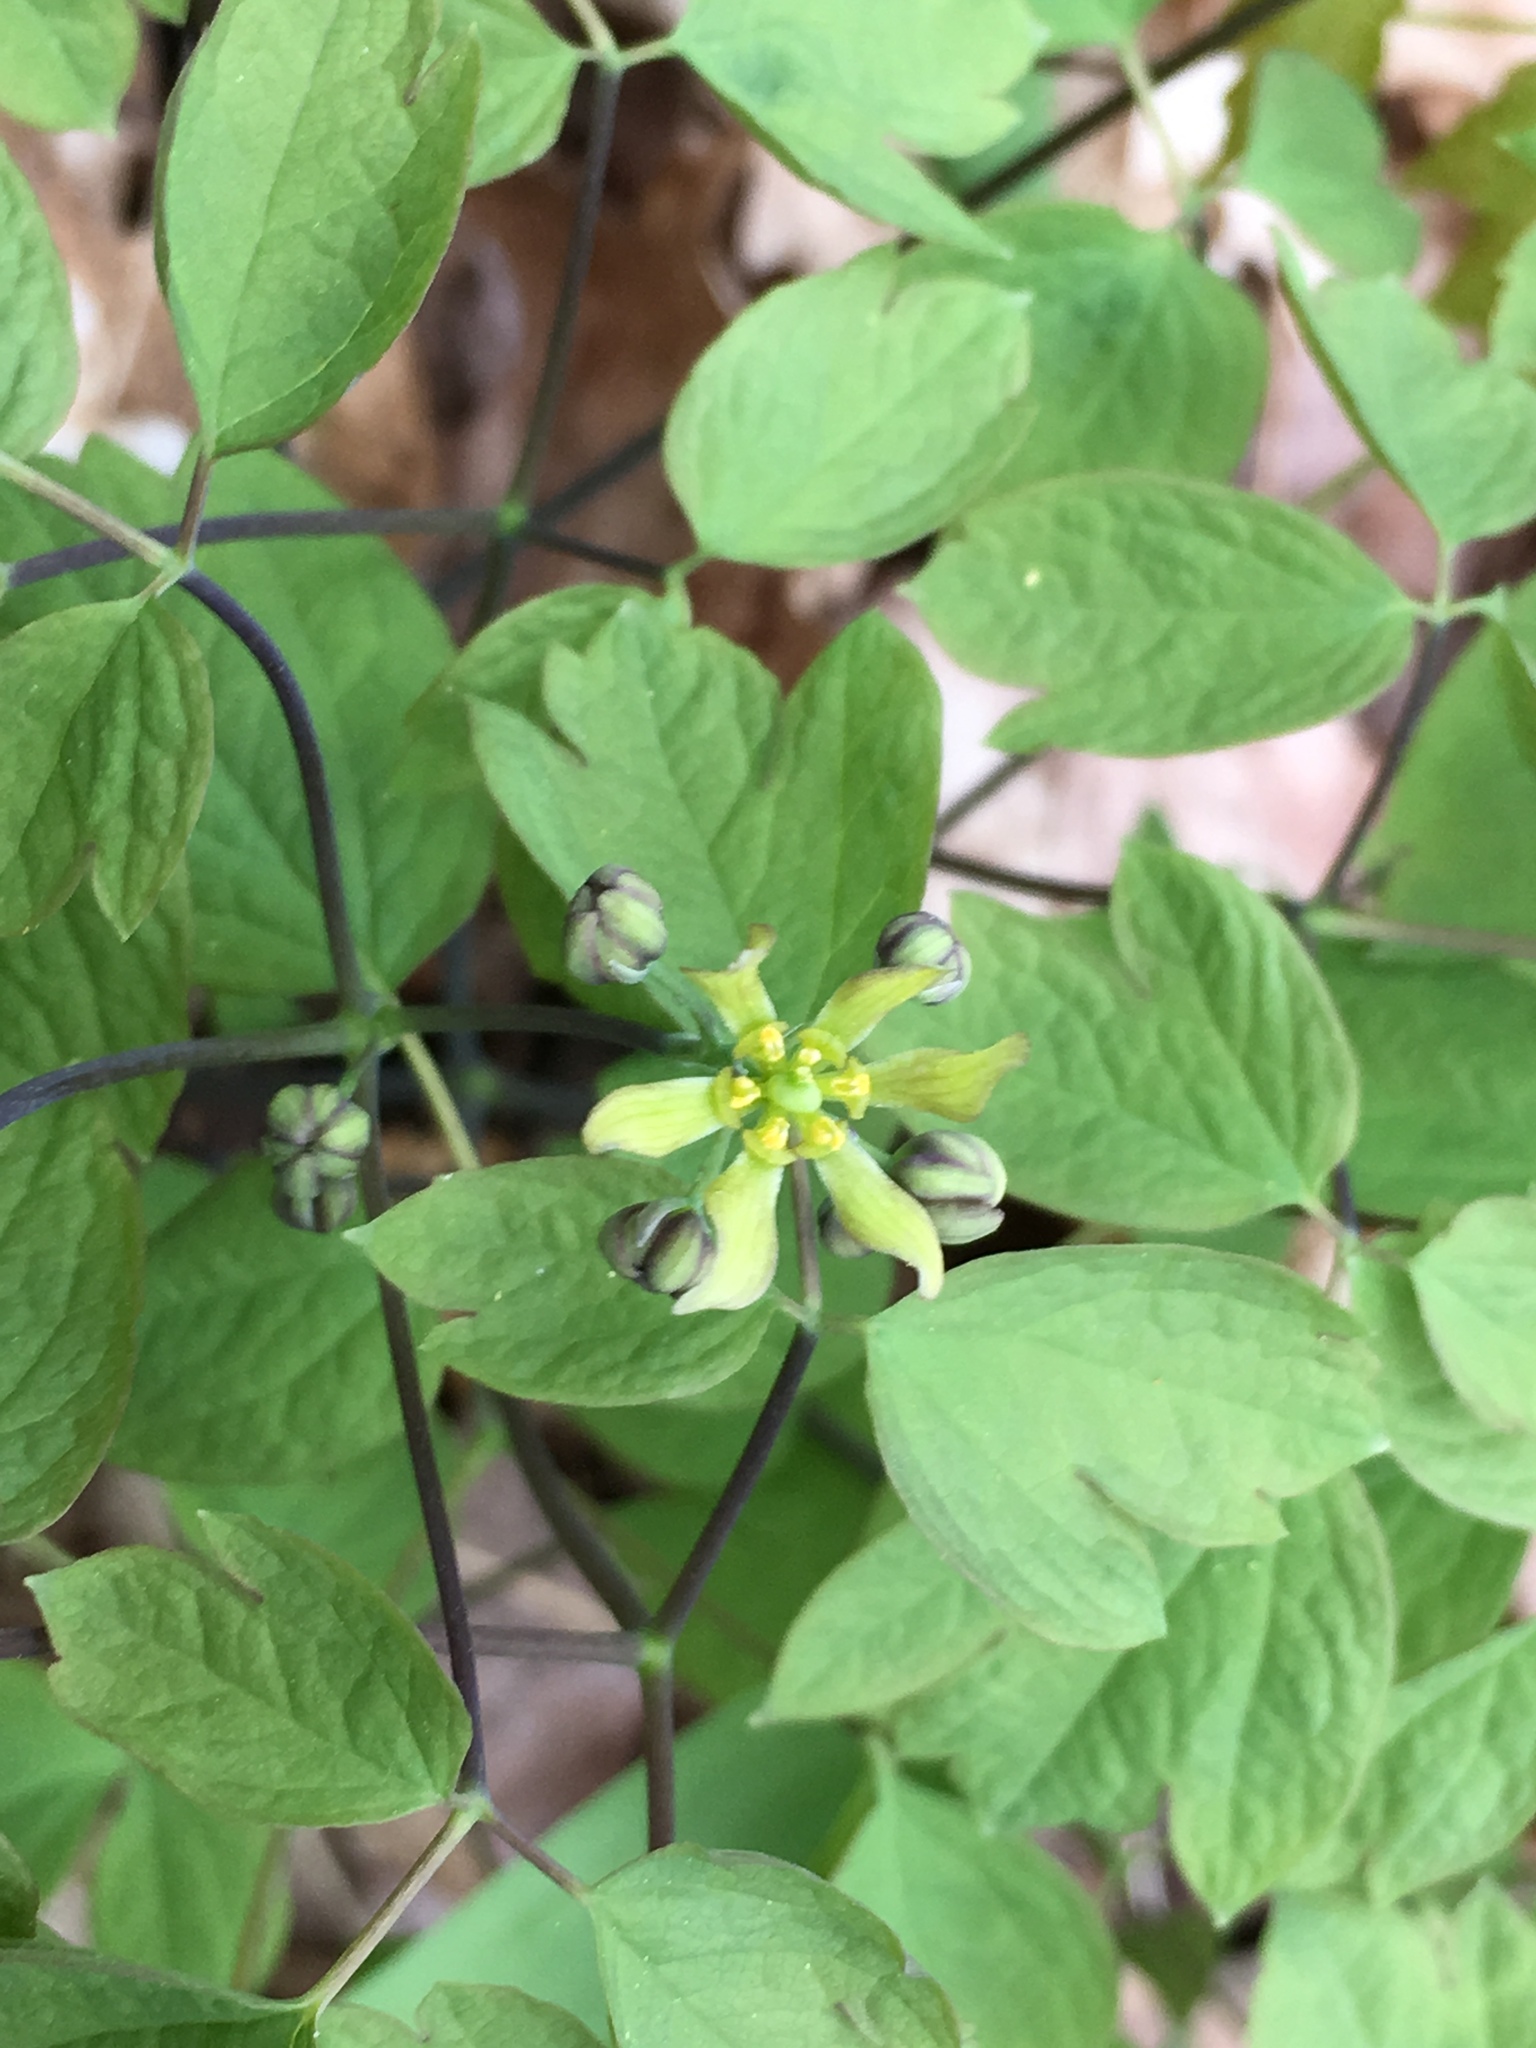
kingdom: Plantae
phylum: Tracheophyta
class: Magnoliopsida
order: Ranunculales
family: Berberidaceae
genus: Caulophyllum
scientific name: Caulophyllum thalictroides
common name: Blue cohosh
